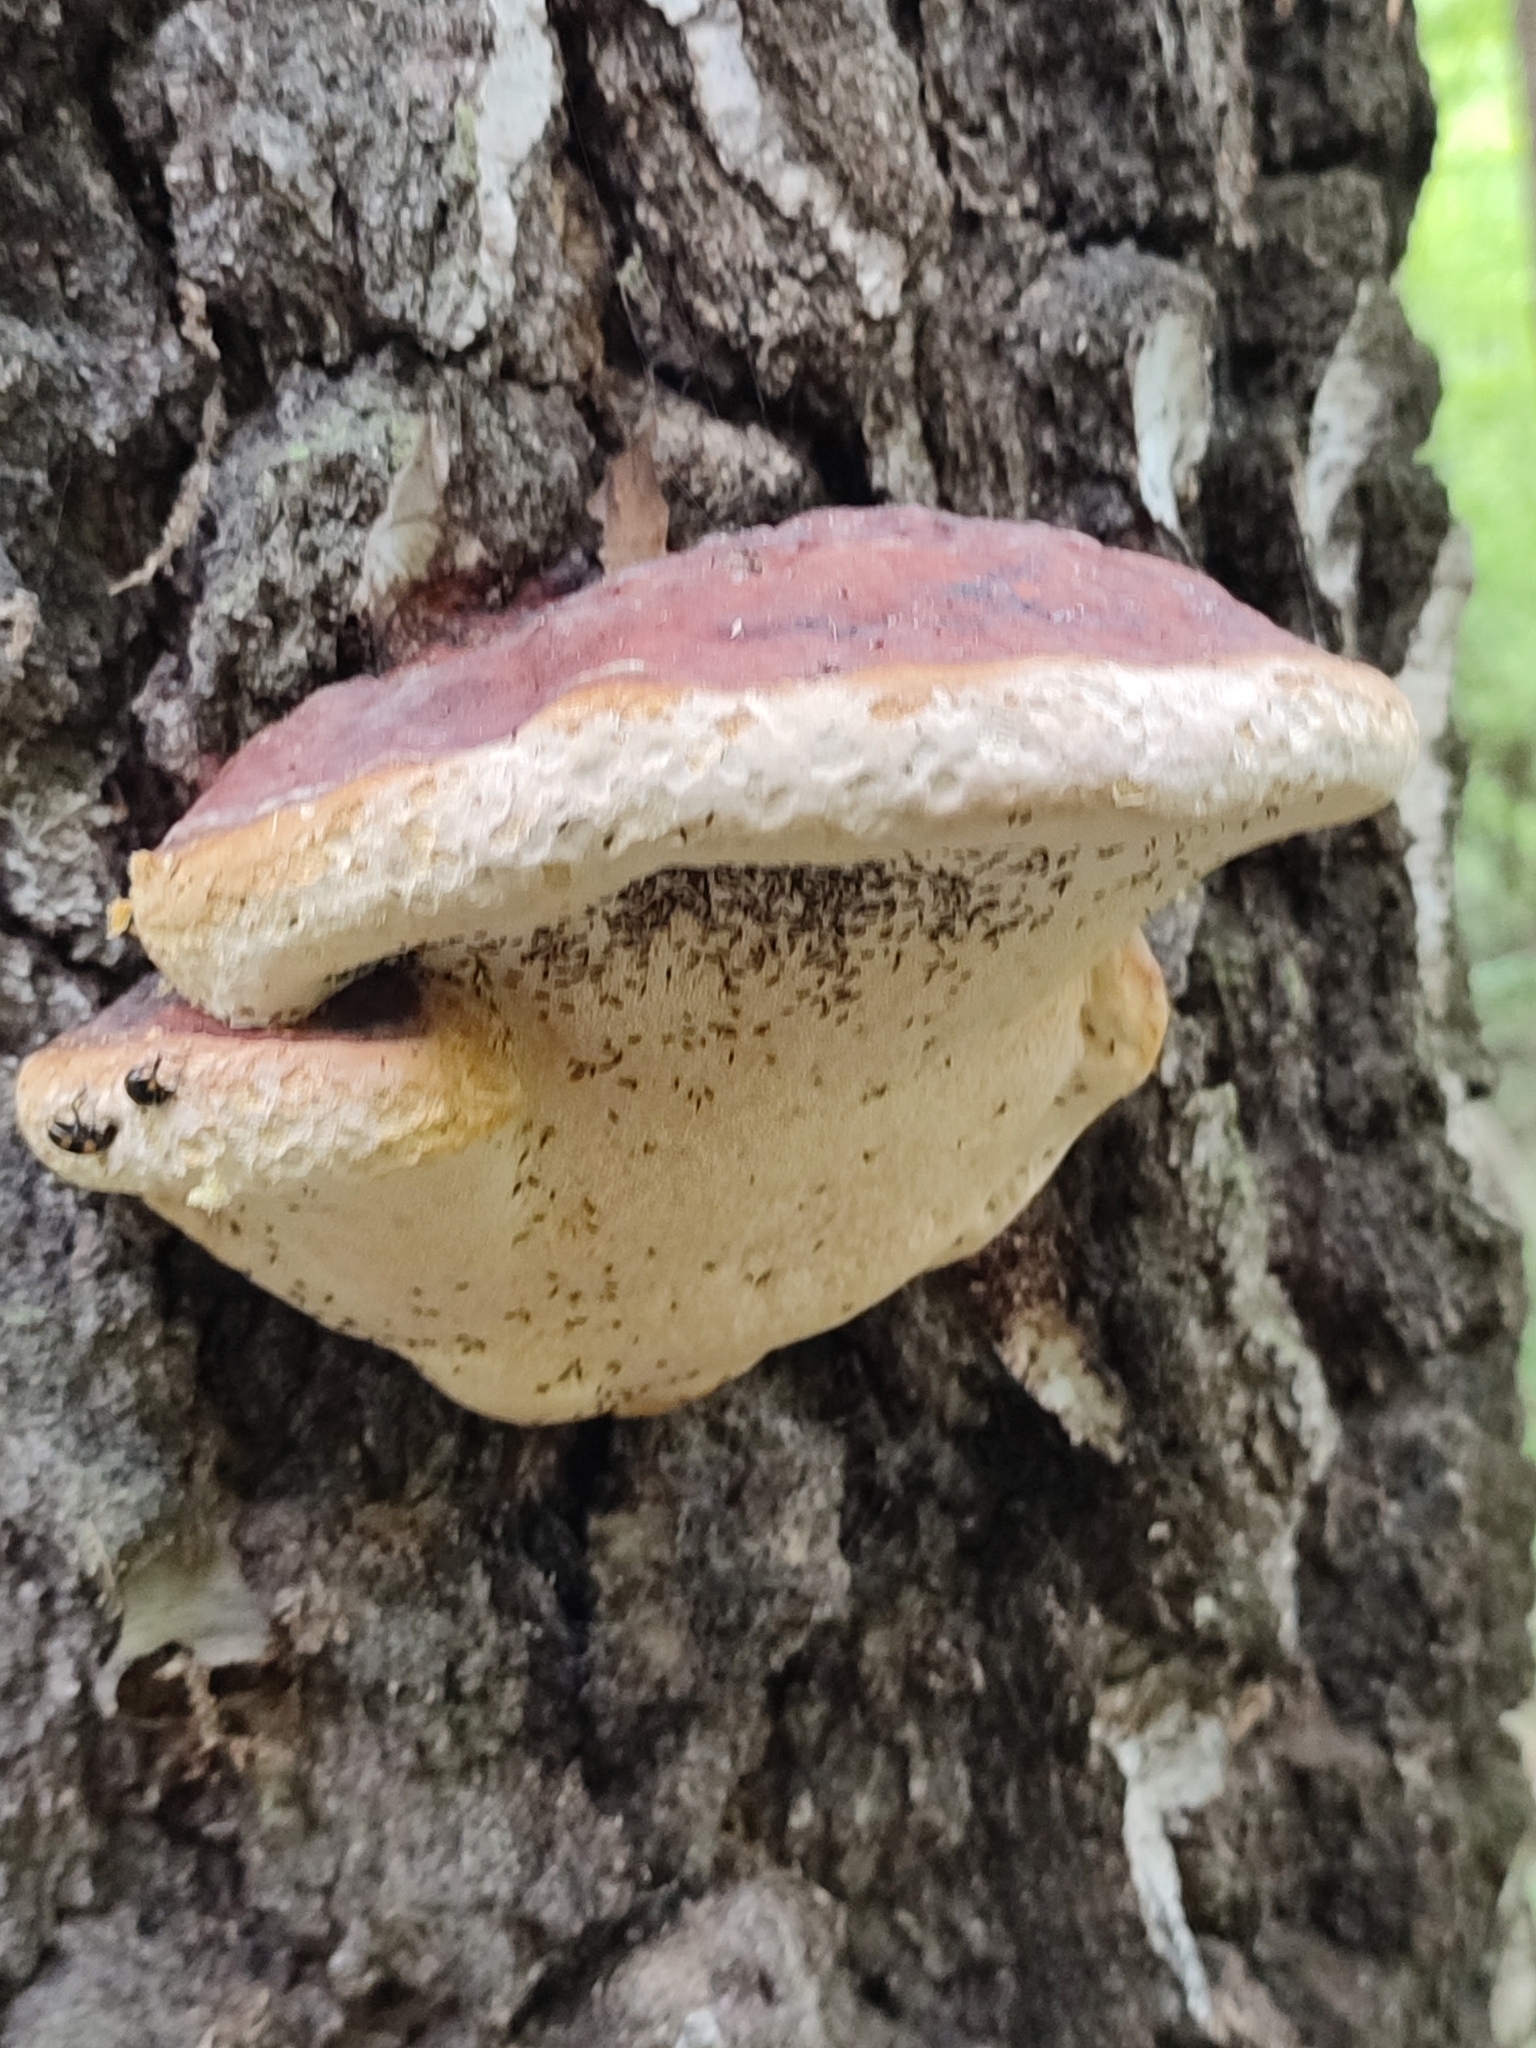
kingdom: Fungi
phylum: Basidiomycota
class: Agaricomycetes
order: Polyporales
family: Fomitopsidaceae
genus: Fomitopsis
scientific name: Fomitopsis pinicola
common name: Red-belted bracket
